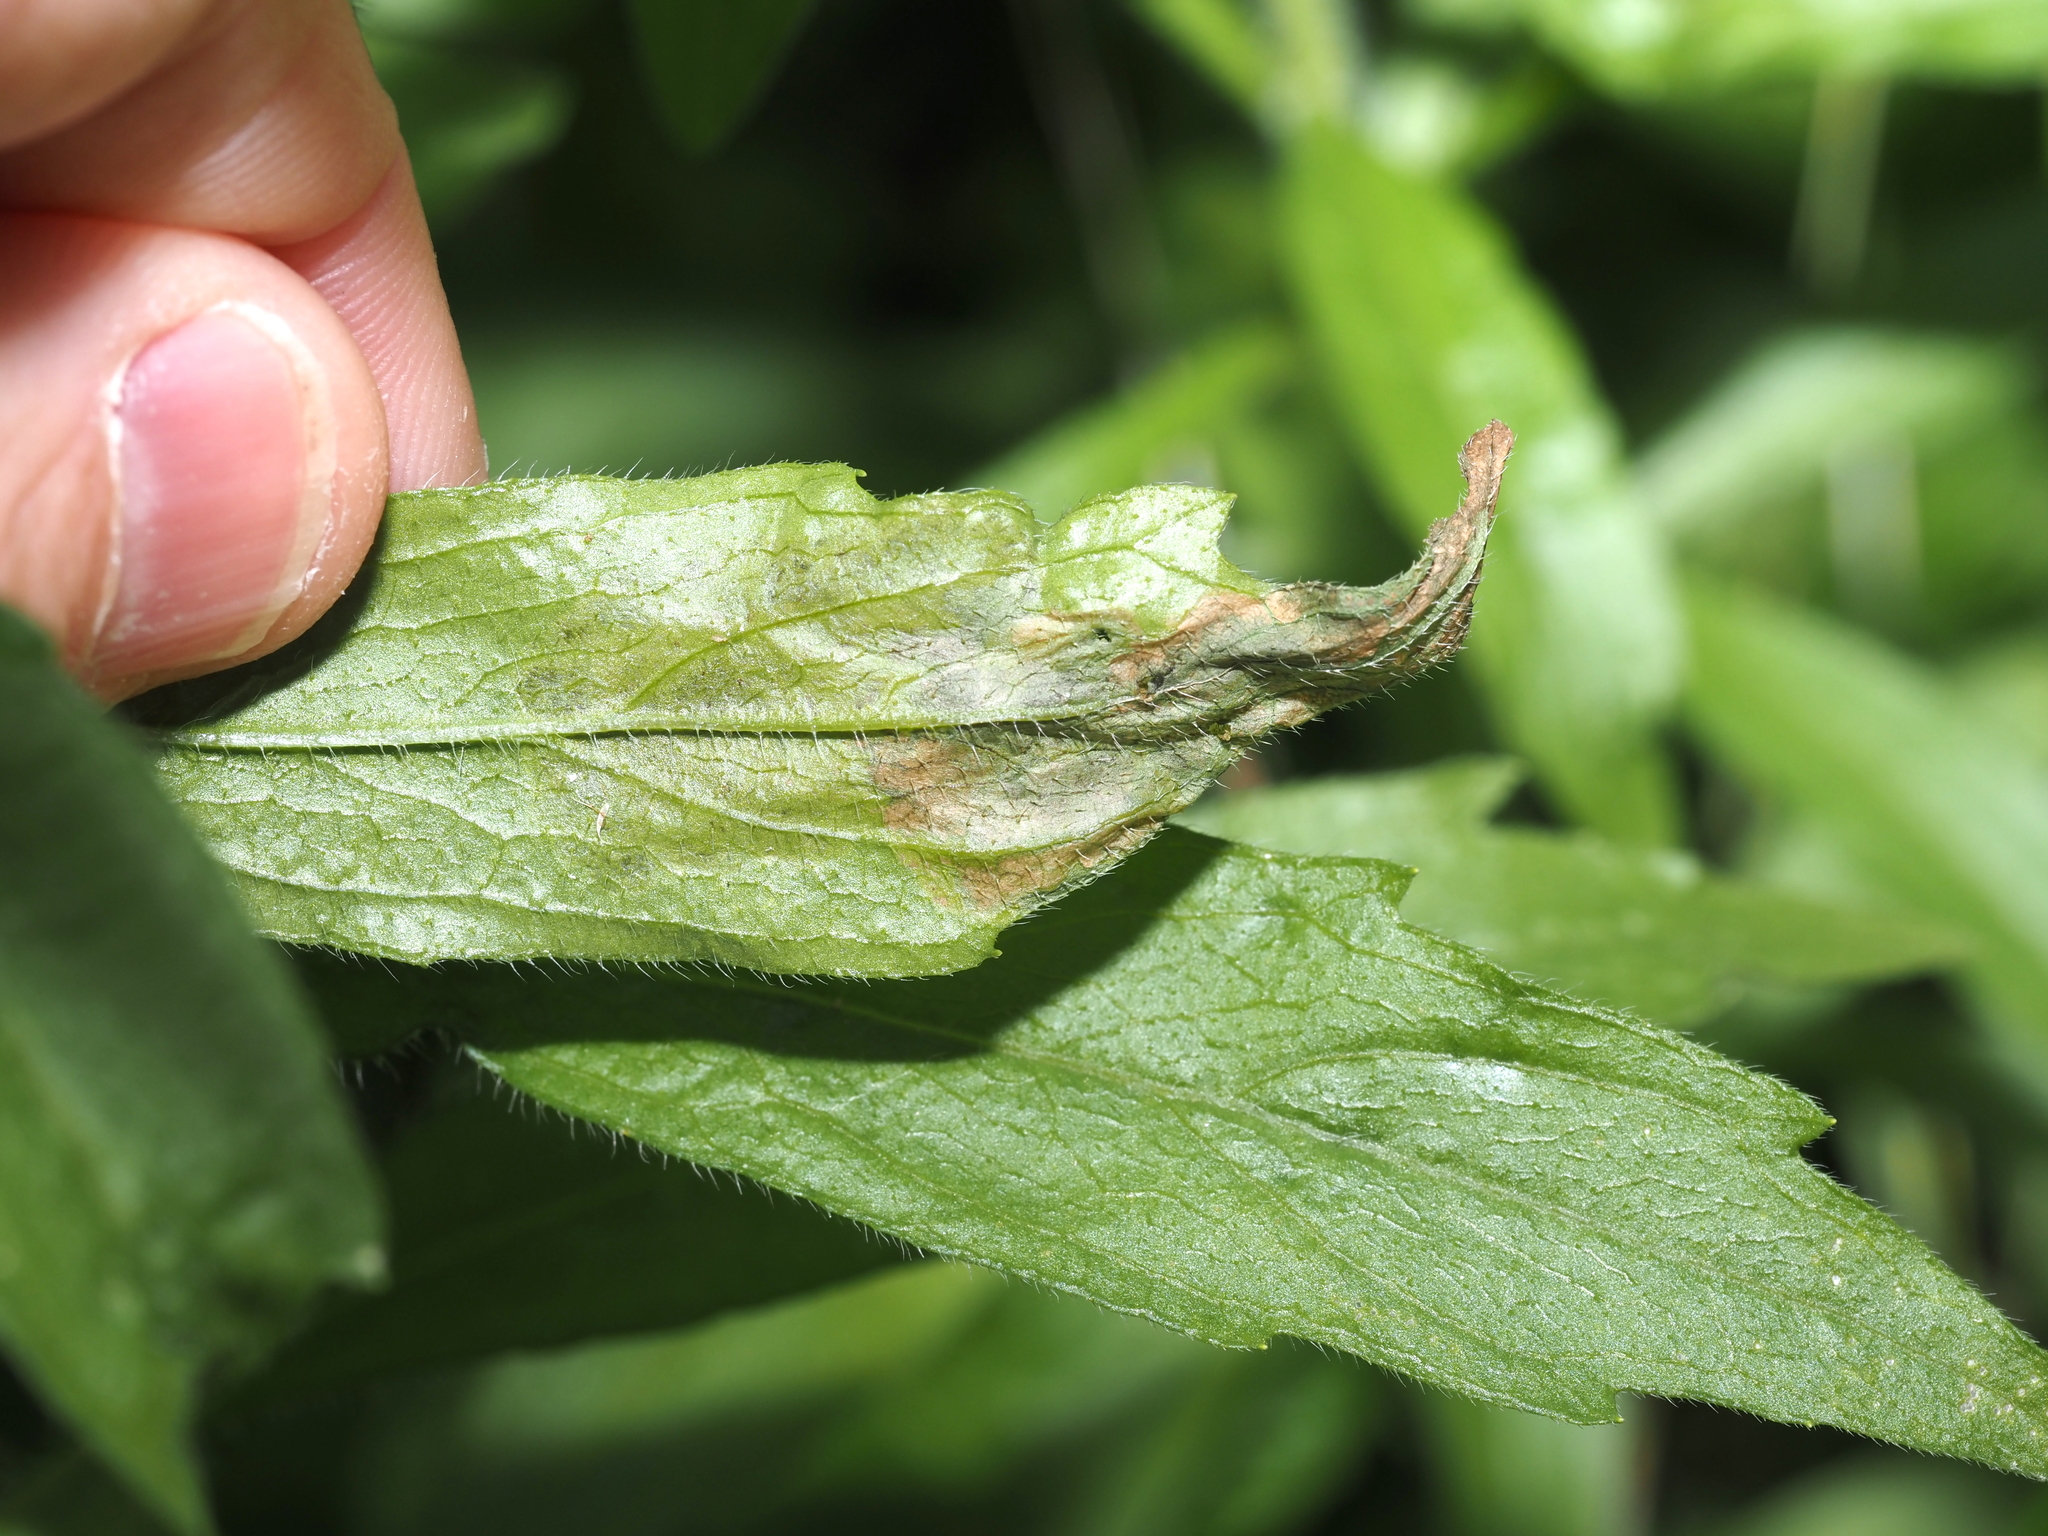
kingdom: Animalia
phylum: Arthropoda
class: Insecta
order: Diptera
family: Agromyzidae
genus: Nemorimyza
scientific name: Nemorimyza maculosa
